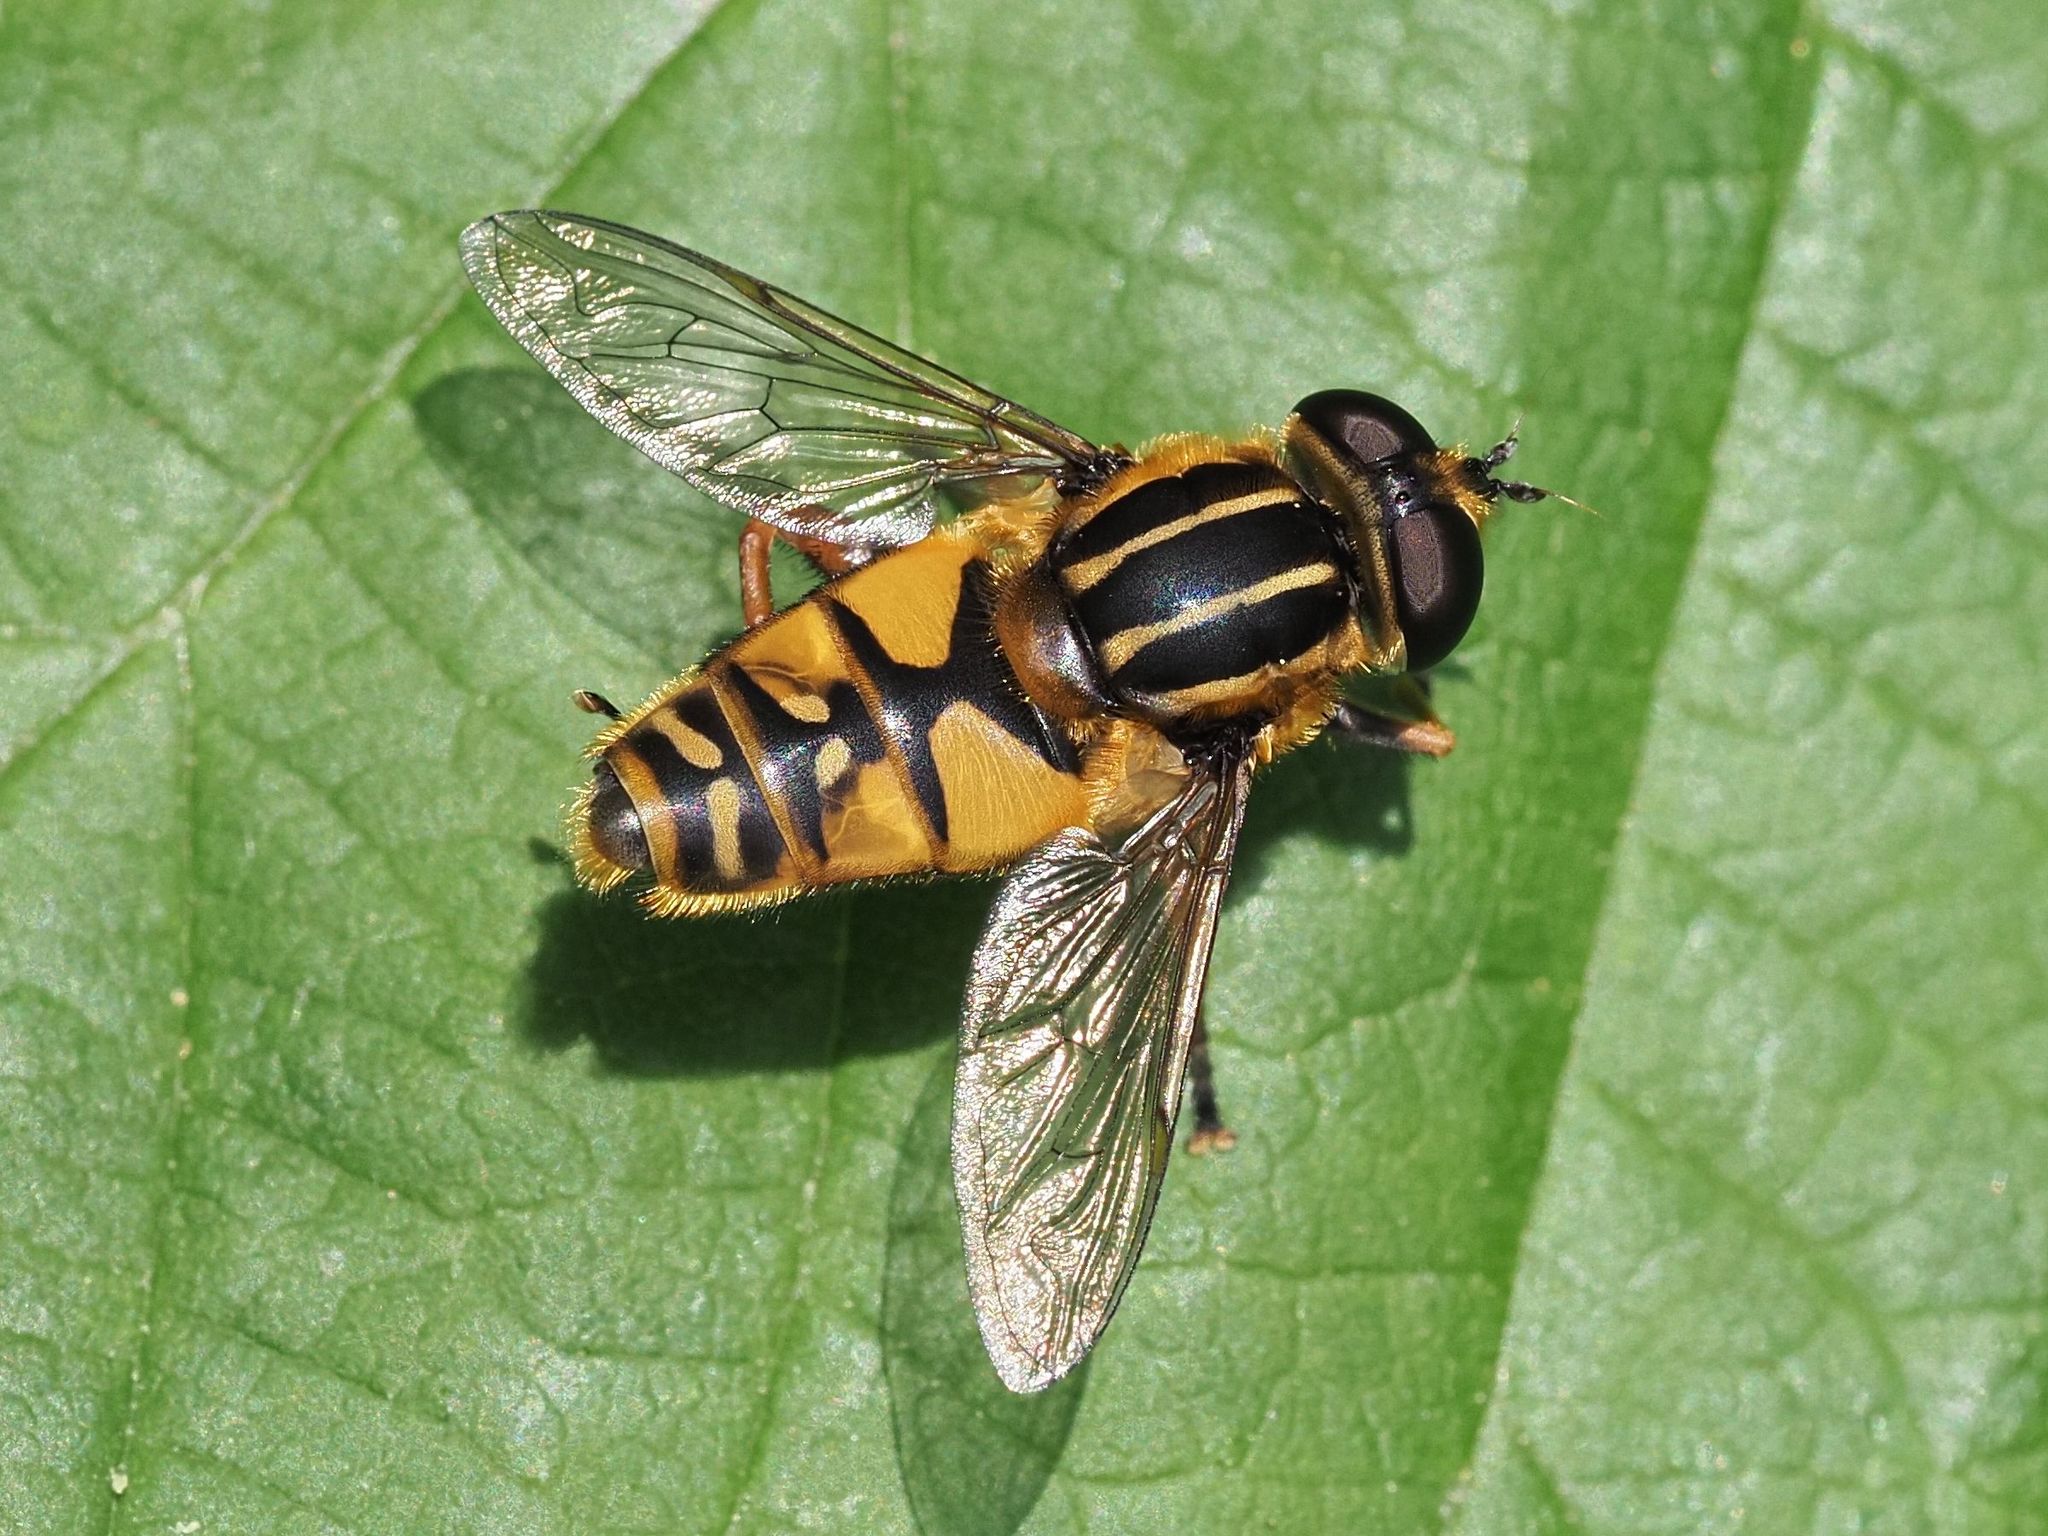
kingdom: Animalia
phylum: Arthropoda
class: Insecta
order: Diptera
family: Syrphidae
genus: Helophilus
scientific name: Helophilus pendulus
